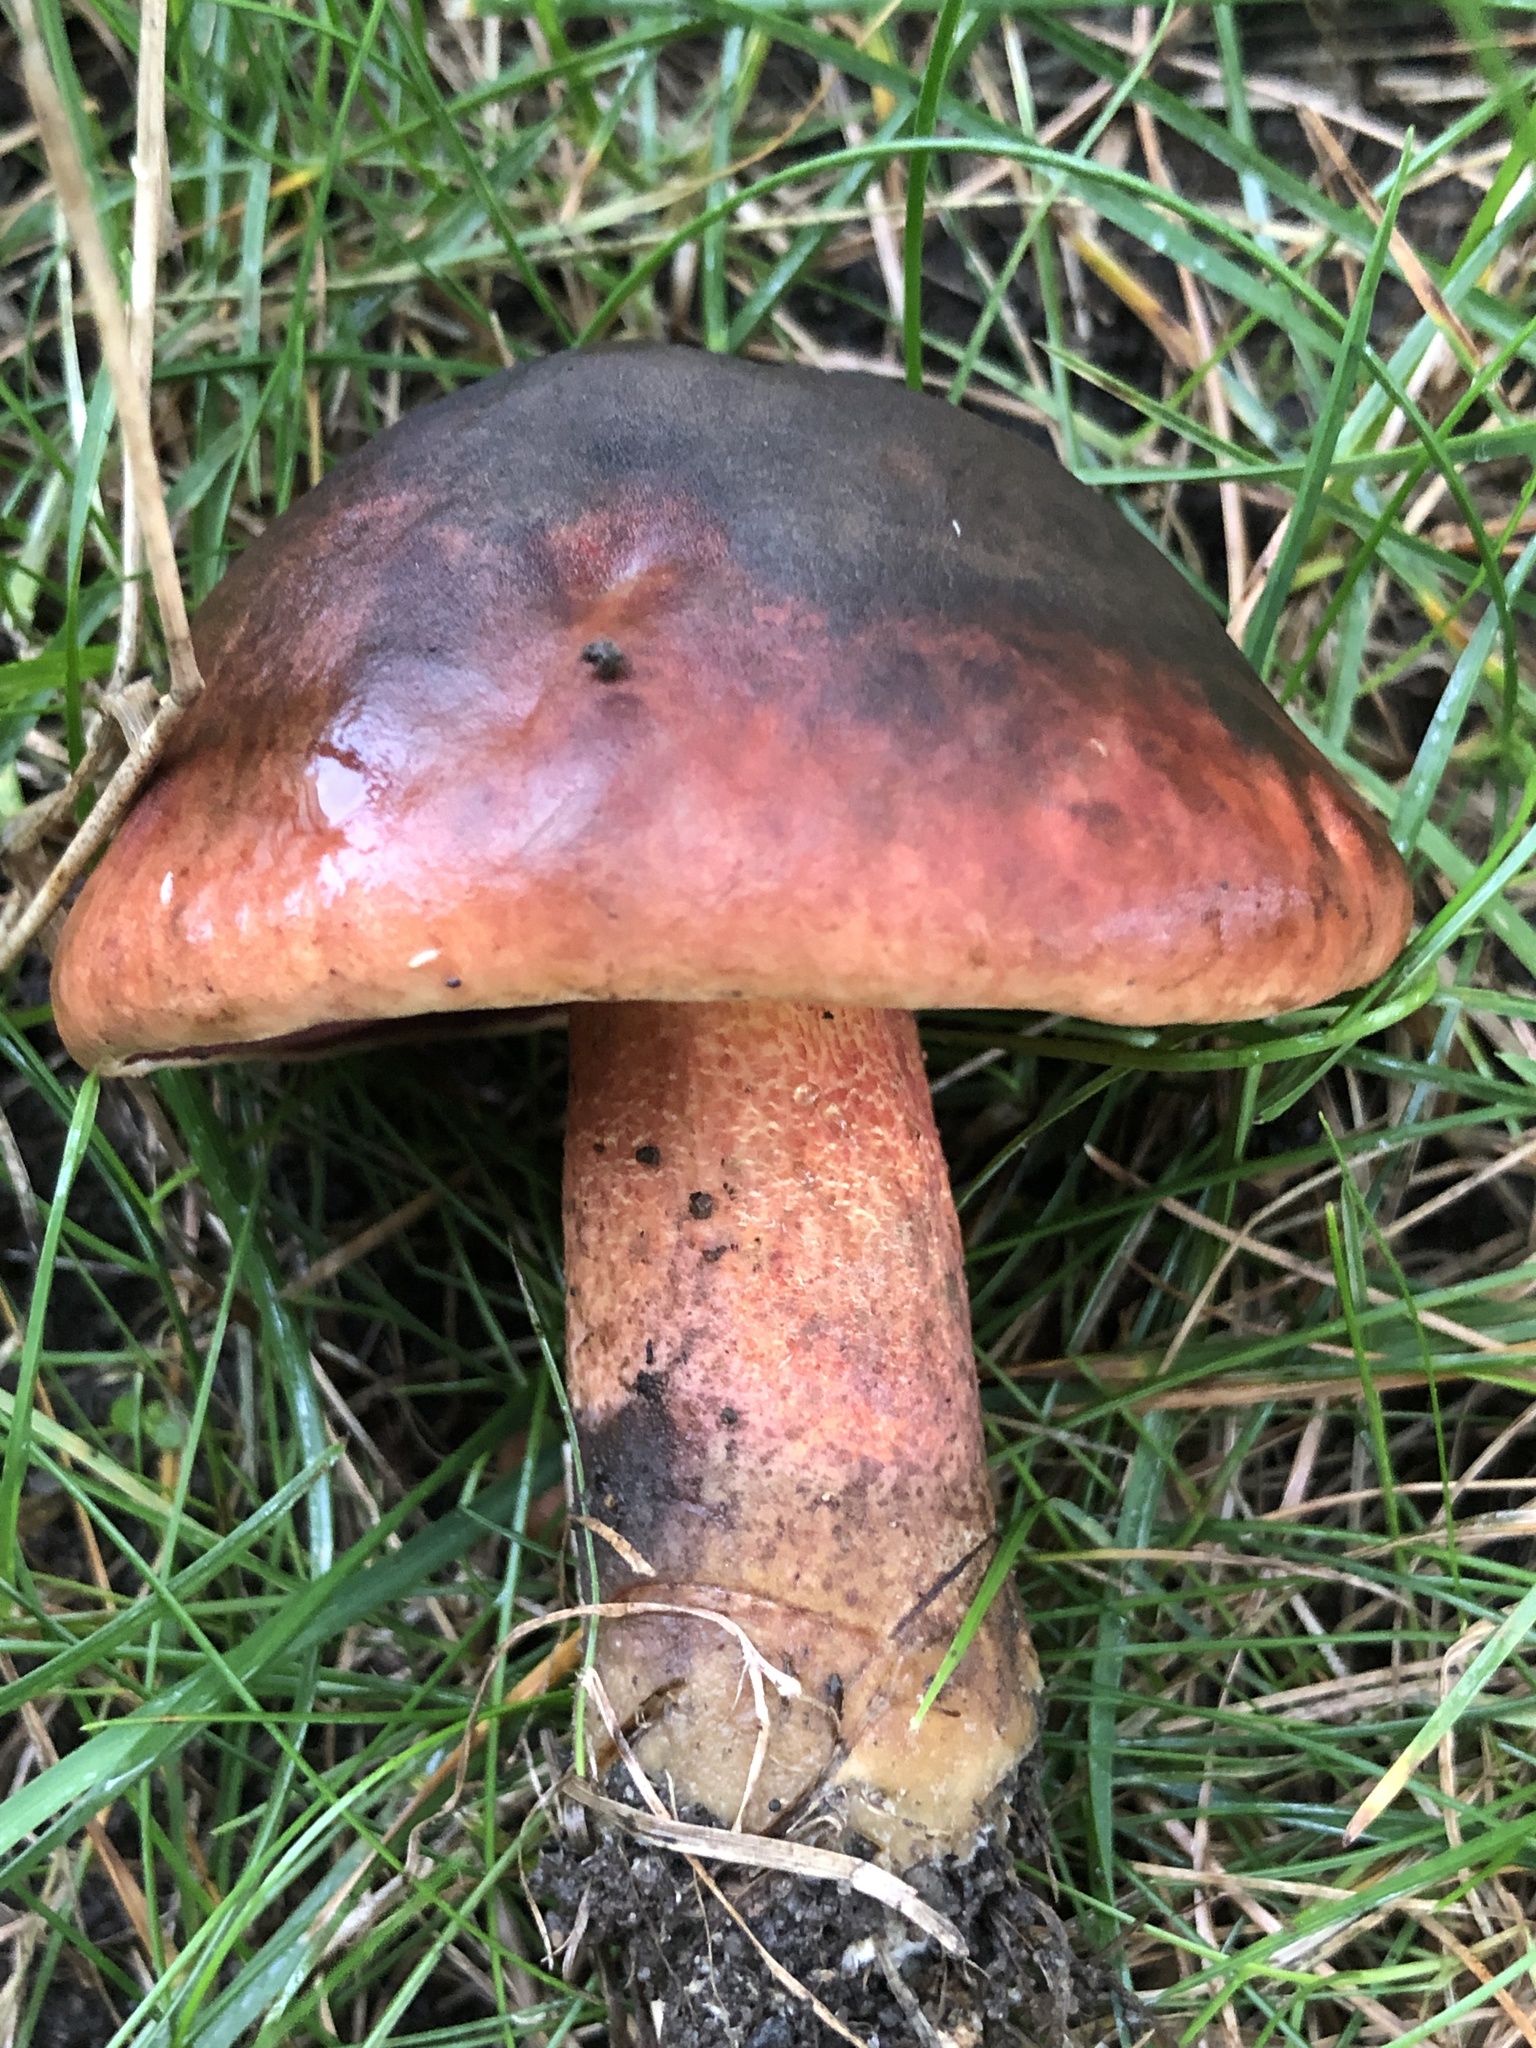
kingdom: Fungi
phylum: Basidiomycota
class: Agaricomycetes
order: Boletales
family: Boletaceae
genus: Boletus
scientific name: Boletus subvelutipes
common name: Red-mouth bolete
